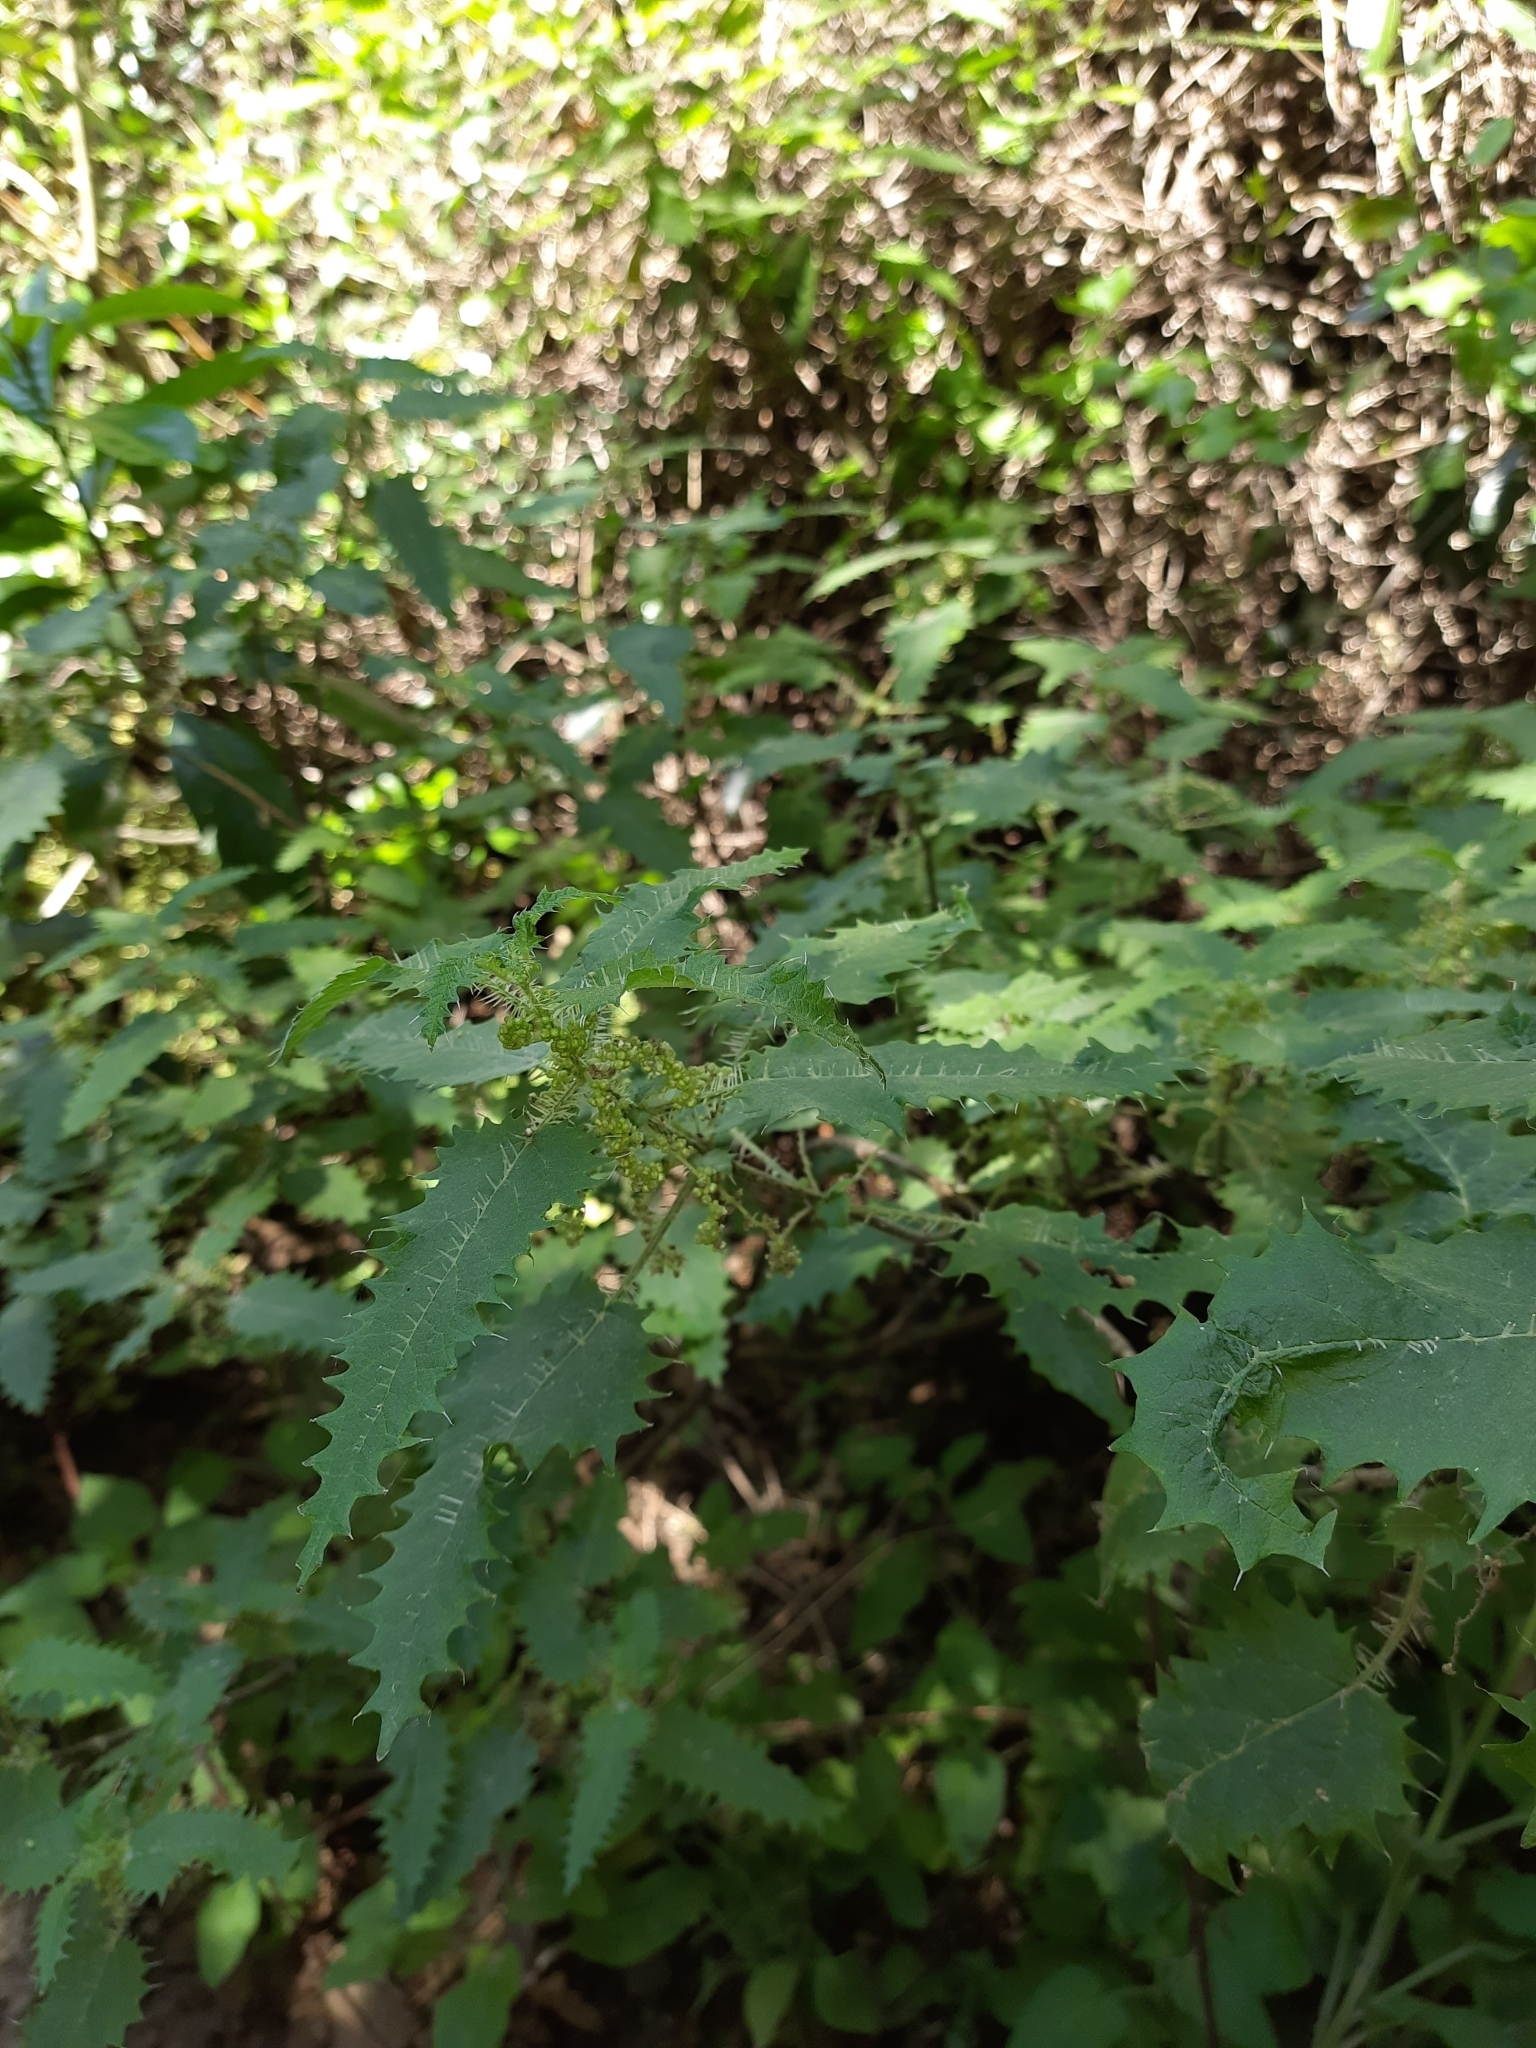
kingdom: Plantae
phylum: Tracheophyta
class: Magnoliopsida
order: Rosales
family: Urticaceae
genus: Urtica
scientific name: Urtica ferox
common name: Tree nettle
